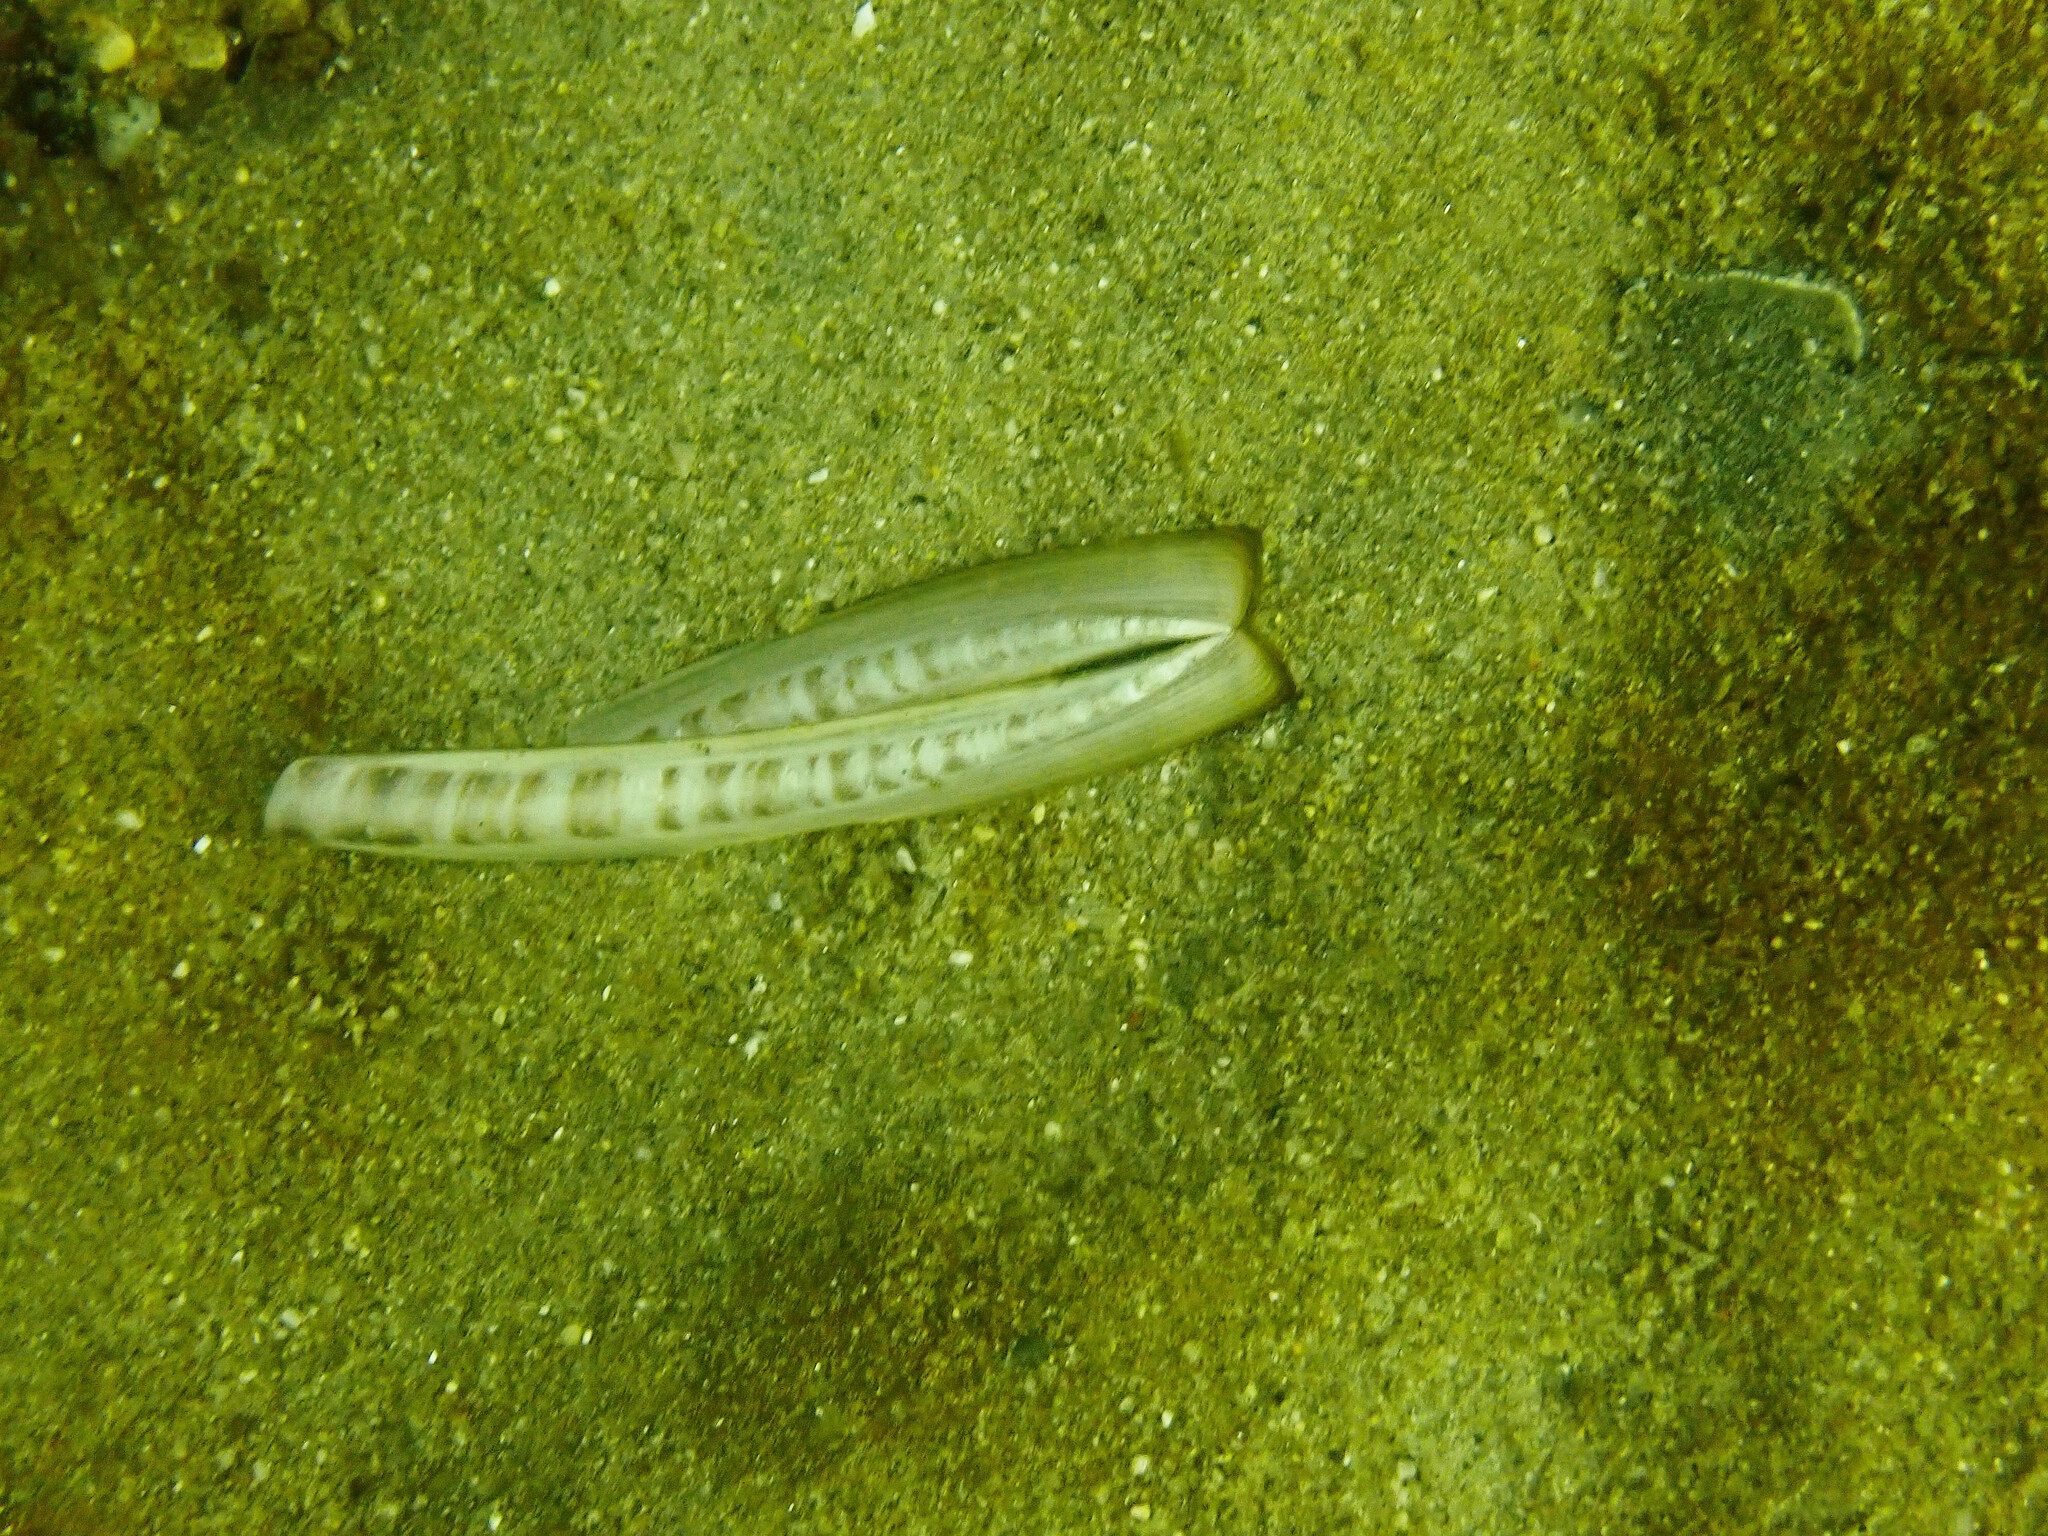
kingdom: Animalia
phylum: Mollusca
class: Bivalvia
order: Adapedonta
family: Pharidae
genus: Ensis
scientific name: Ensis myrae
